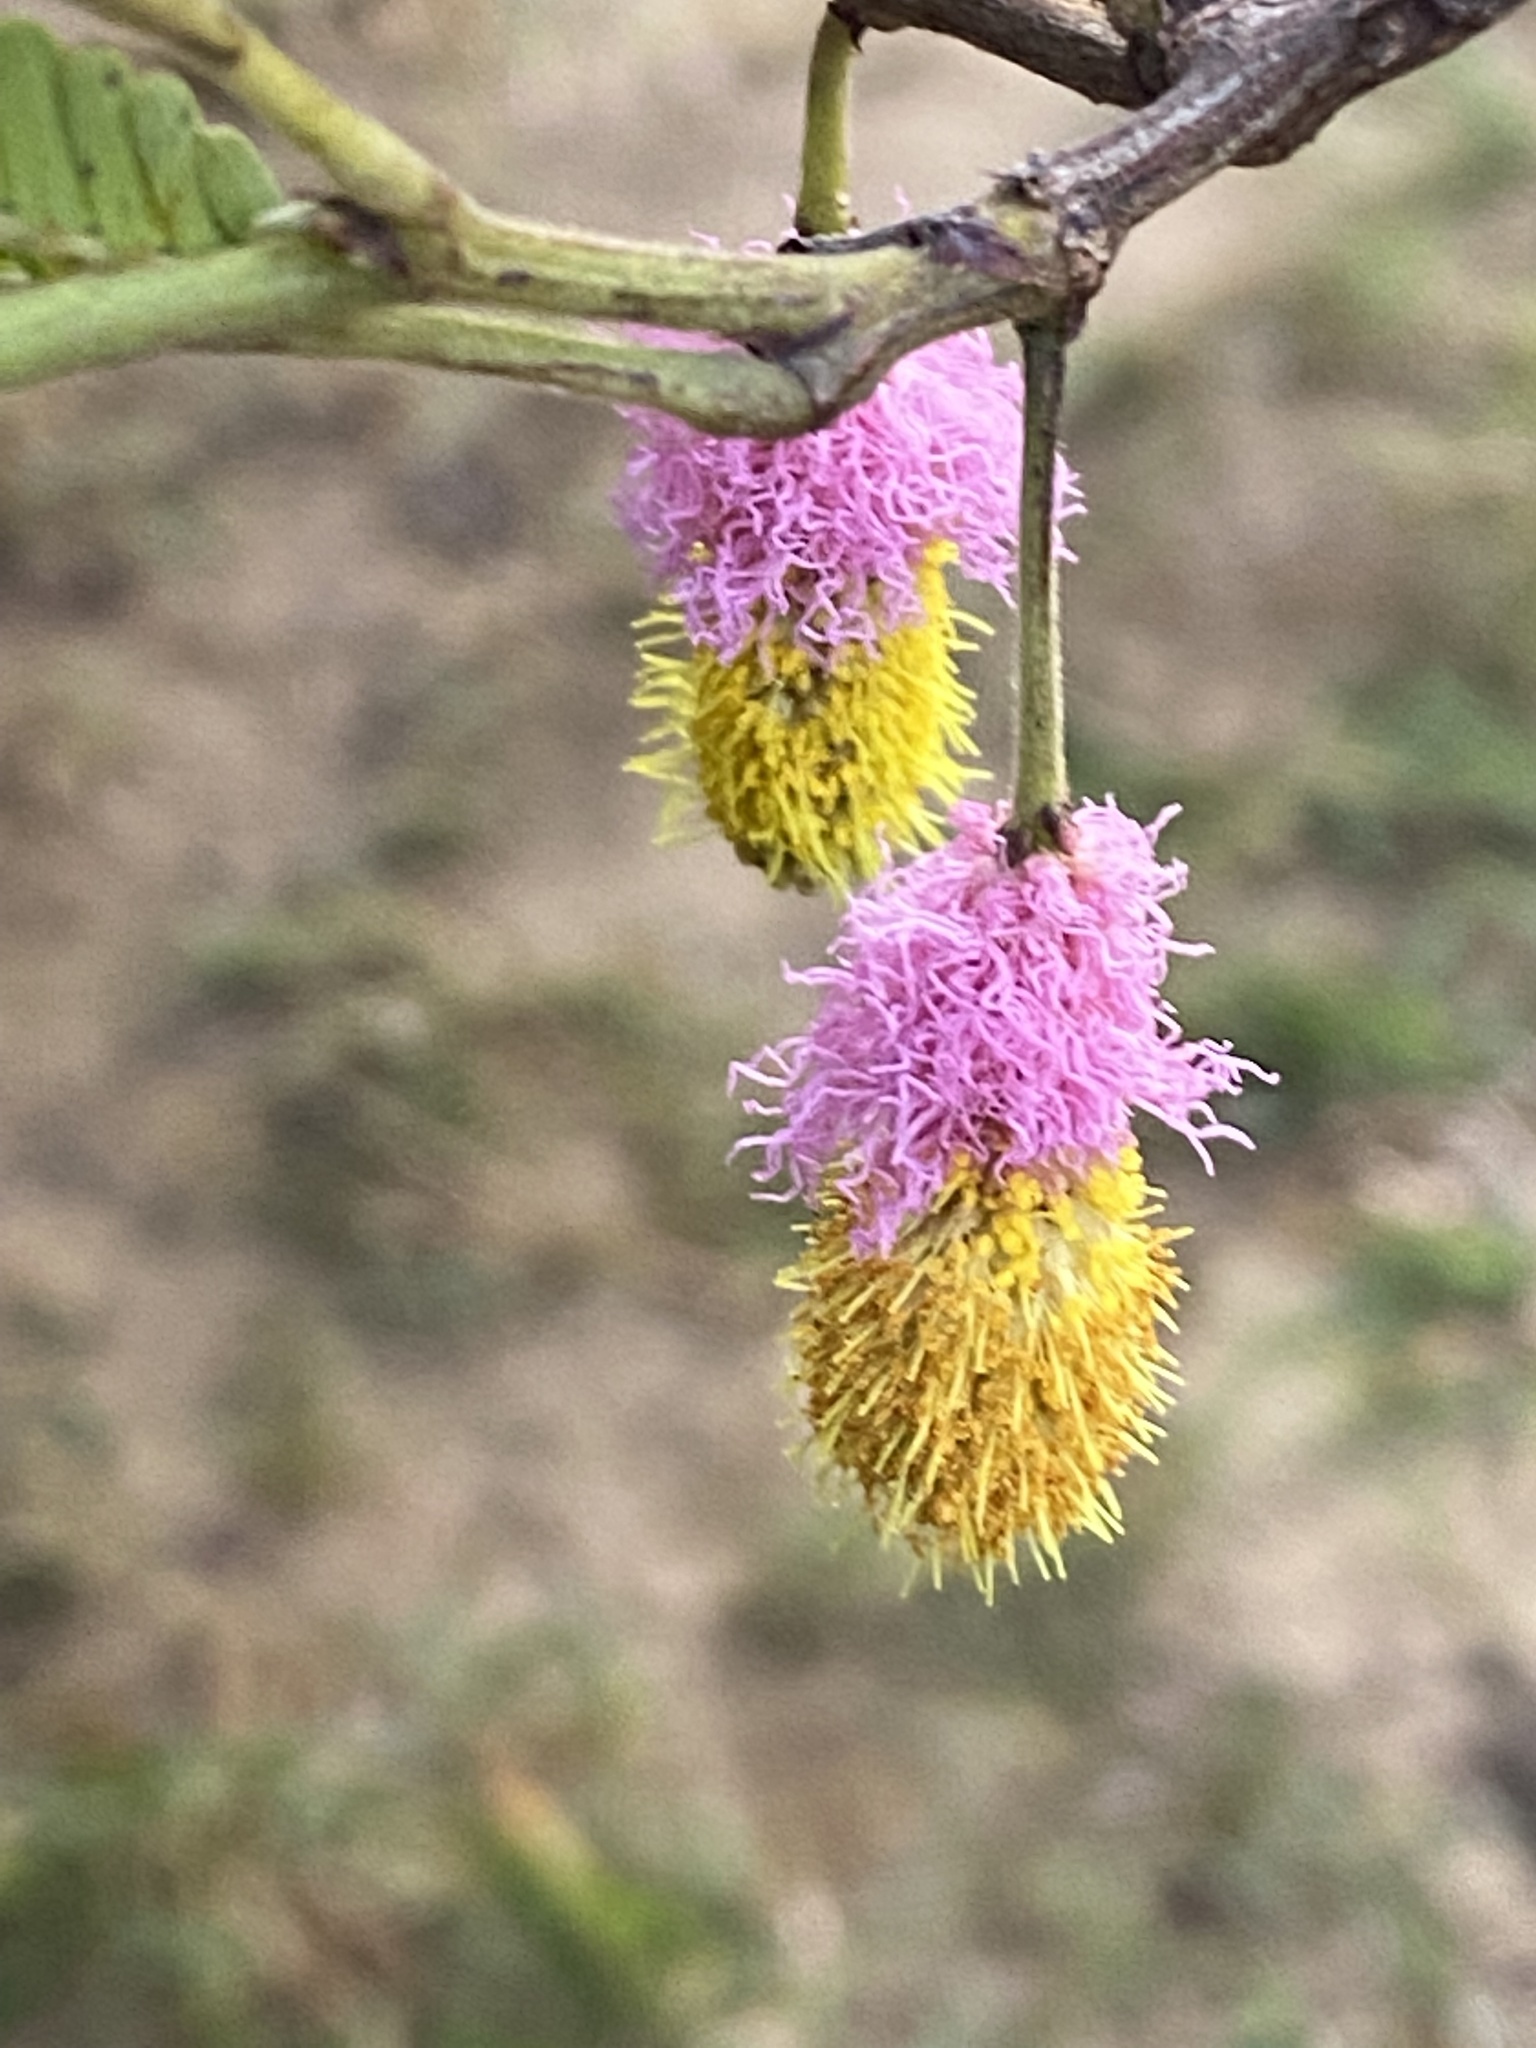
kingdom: Plantae
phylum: Tracheophyta
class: Magnoliopsida
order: Fabales
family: Fabaceae
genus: Dichrostachys
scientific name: Dichrostachys cinerea
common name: Sicklebush
